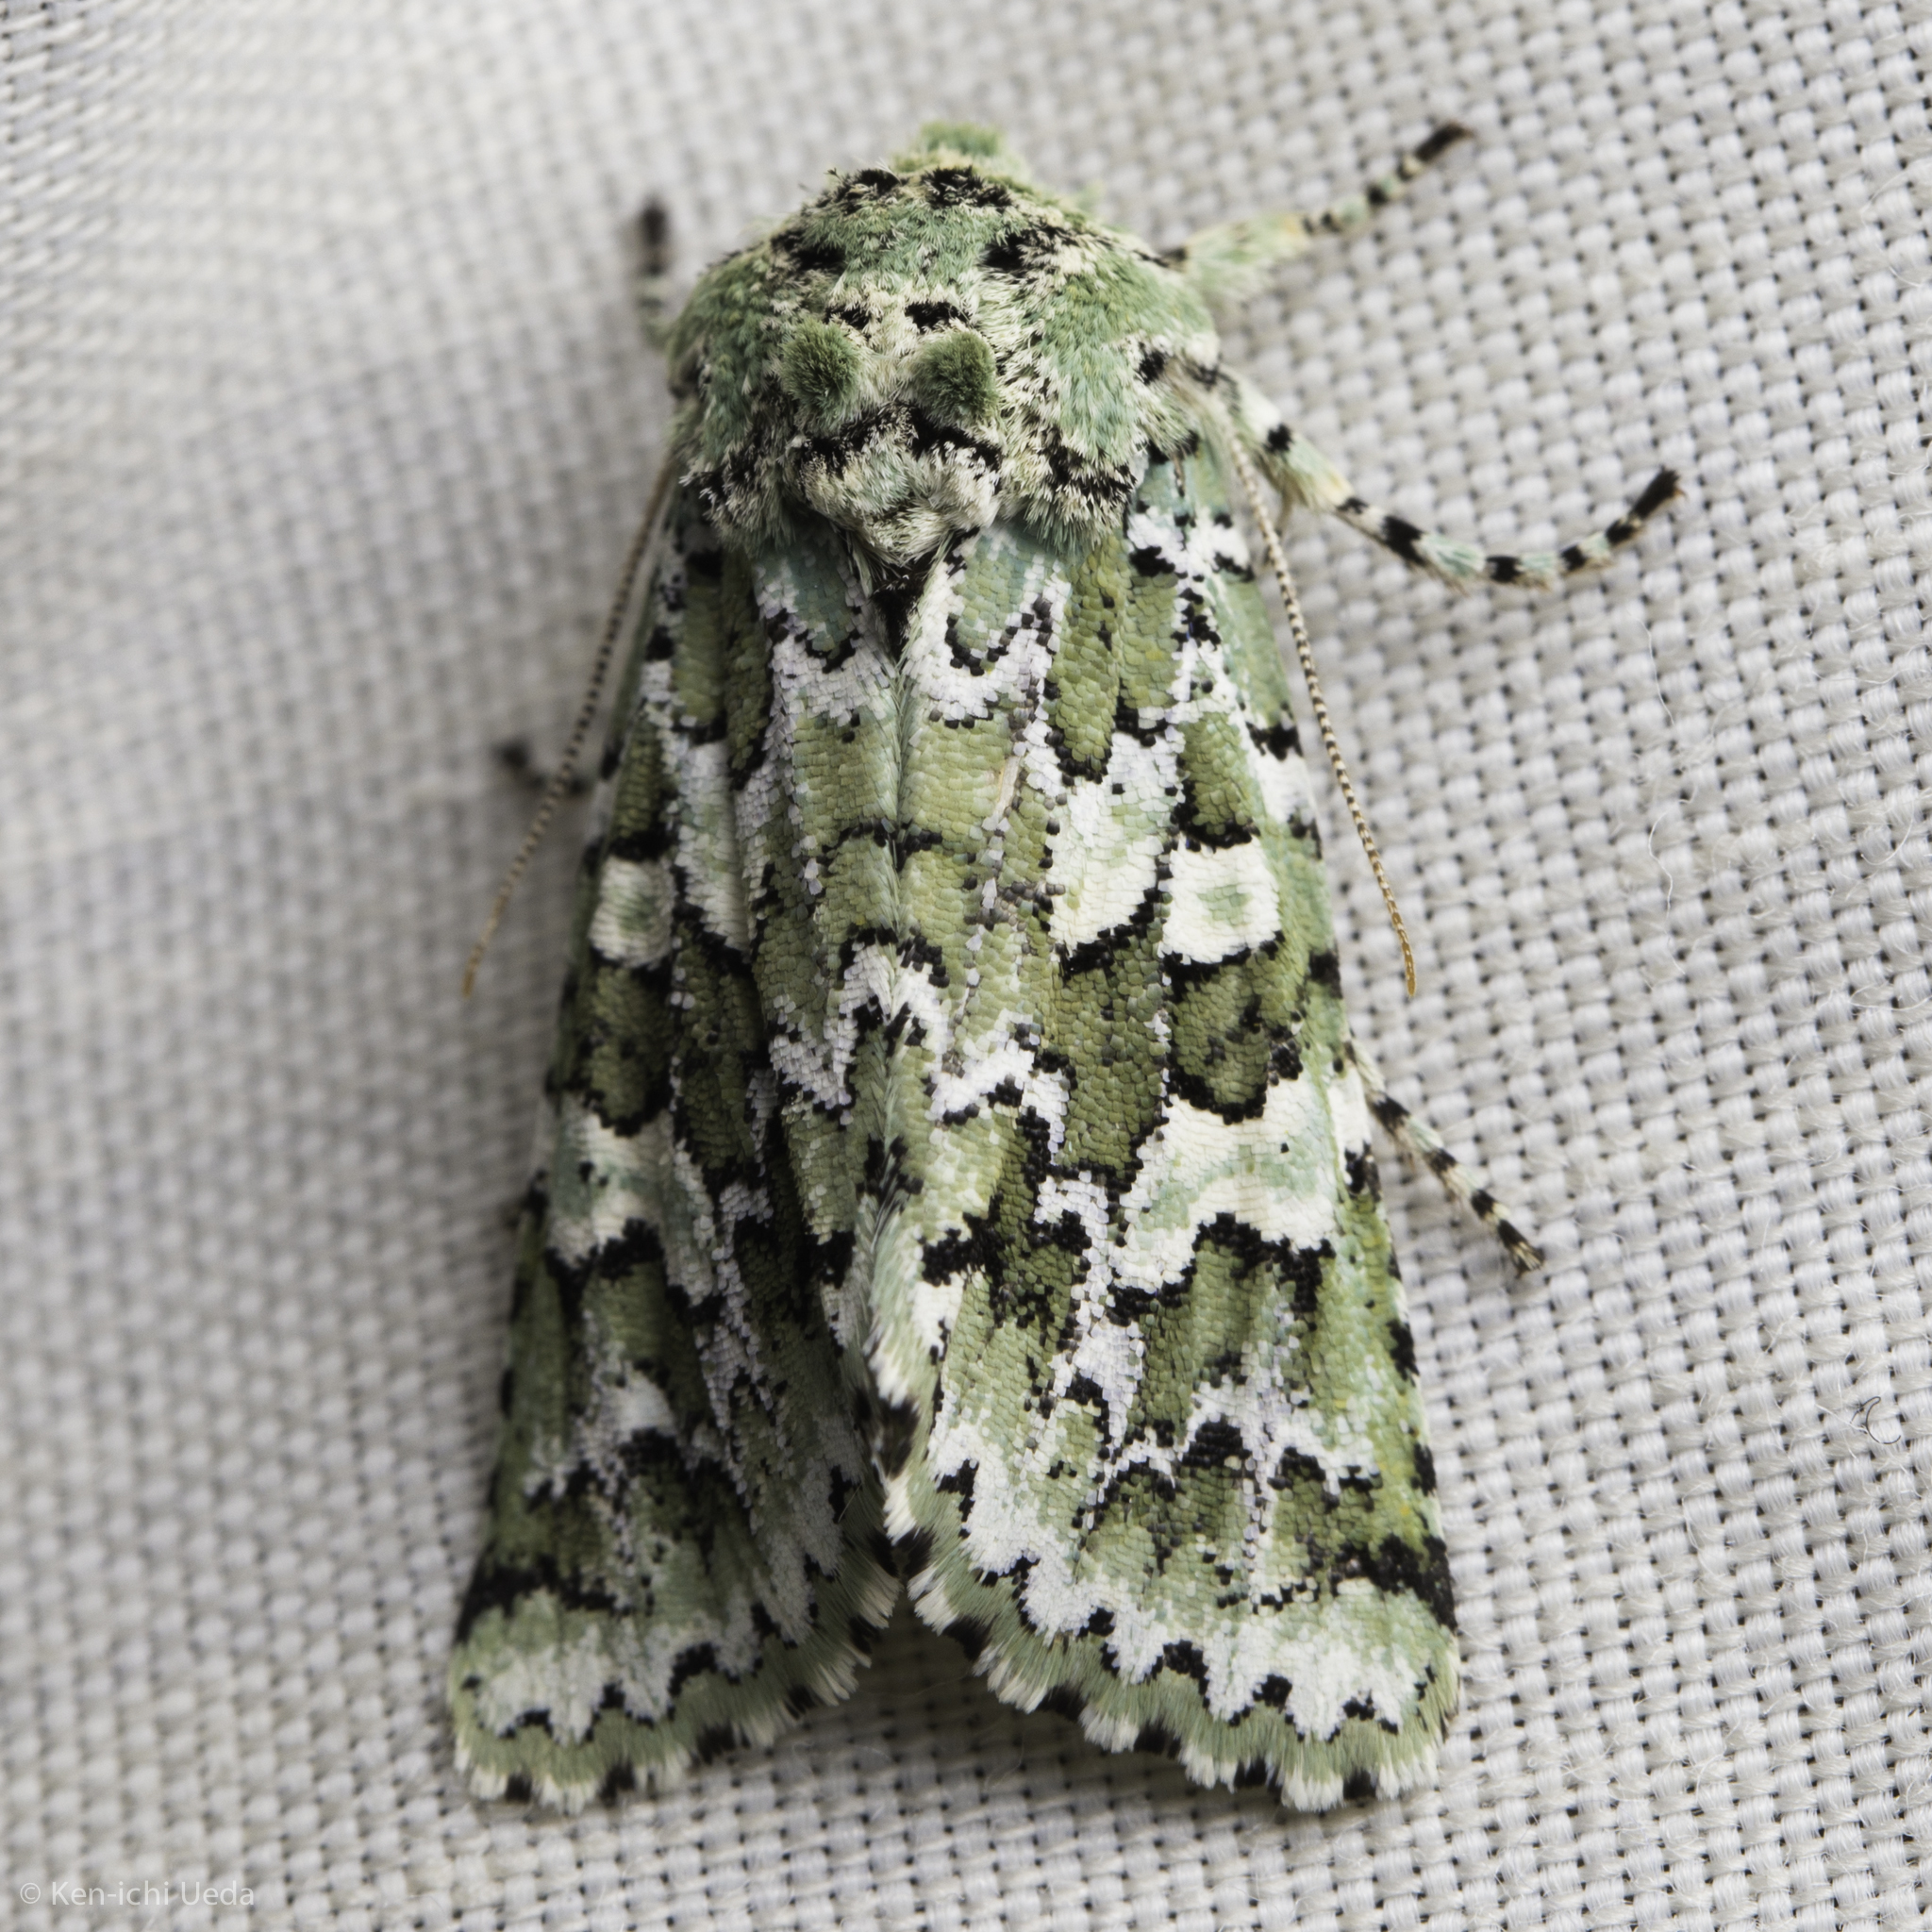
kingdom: Animalia
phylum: Arthropoda
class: Insecta
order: Lepidoptera
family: Noctuidae
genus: Feralia
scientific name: Feralia februalis
